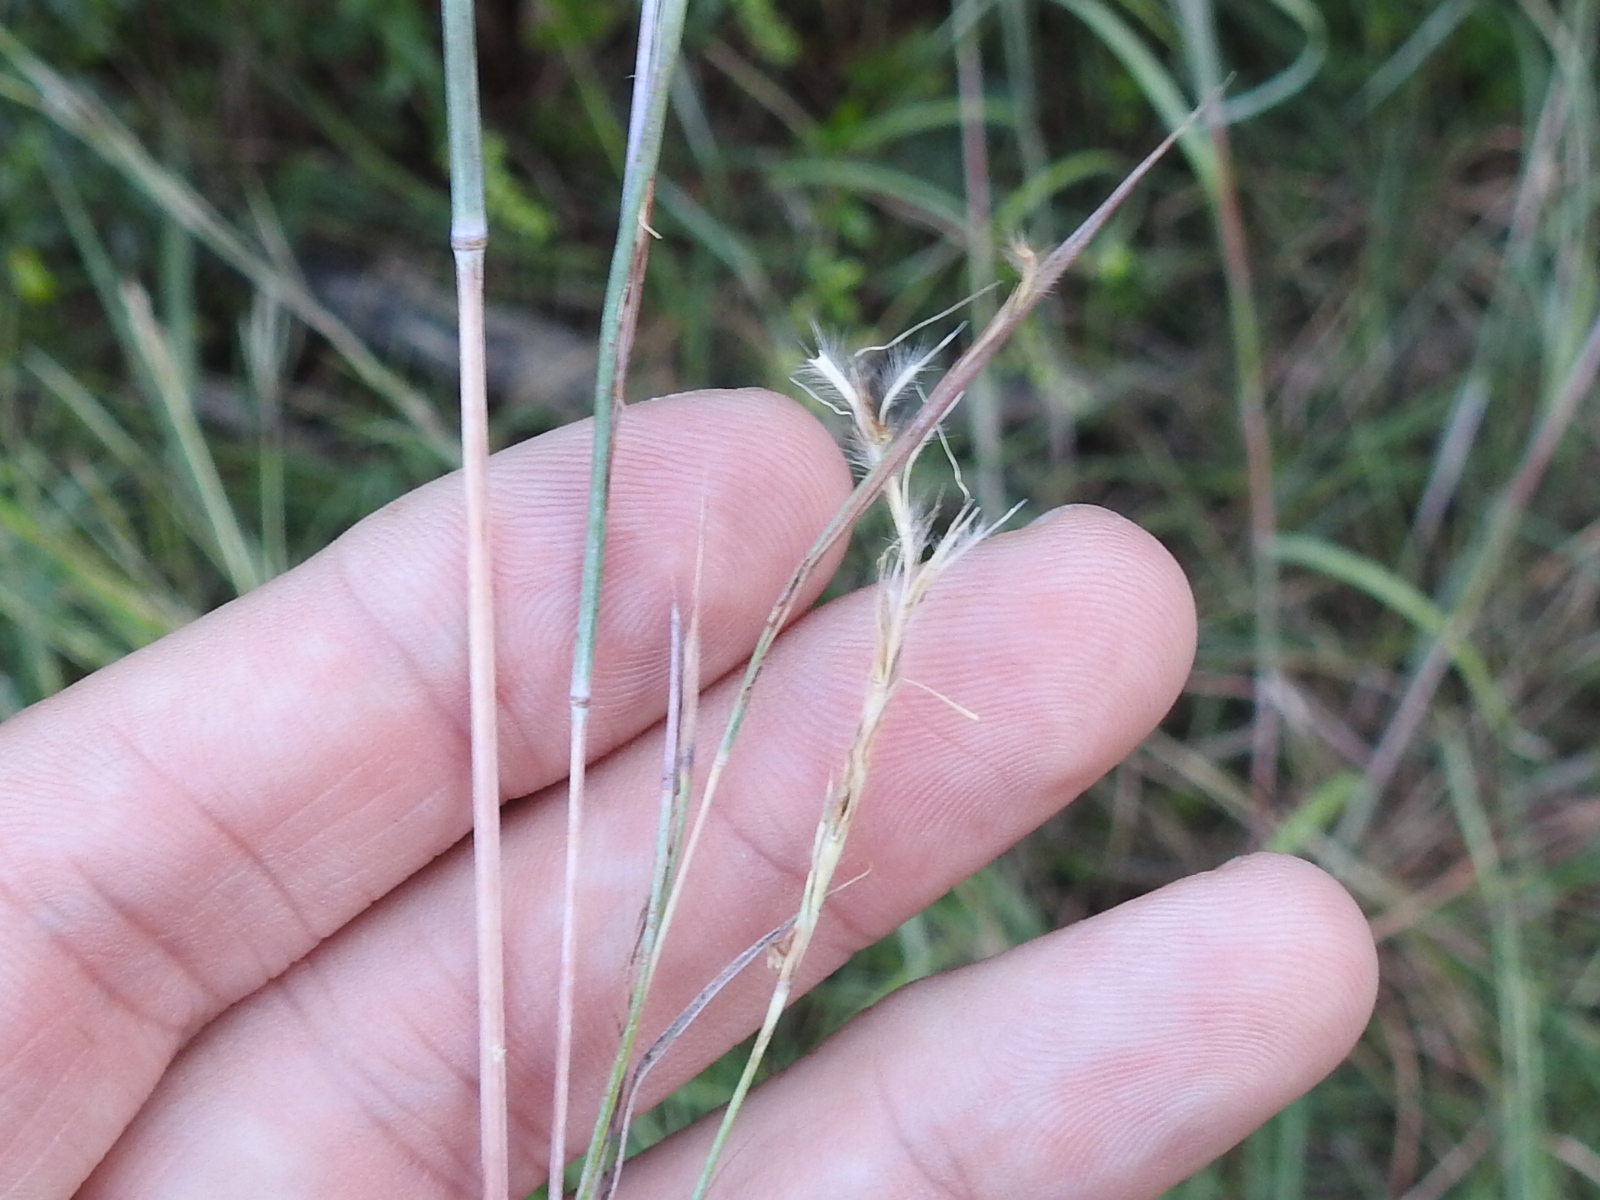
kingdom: Plantae
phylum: Tracheophyta
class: Liliopsida
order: Poales
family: Poaceae
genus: Schizachyrium
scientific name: Schizachyrium scoparium
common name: Little bluestem
